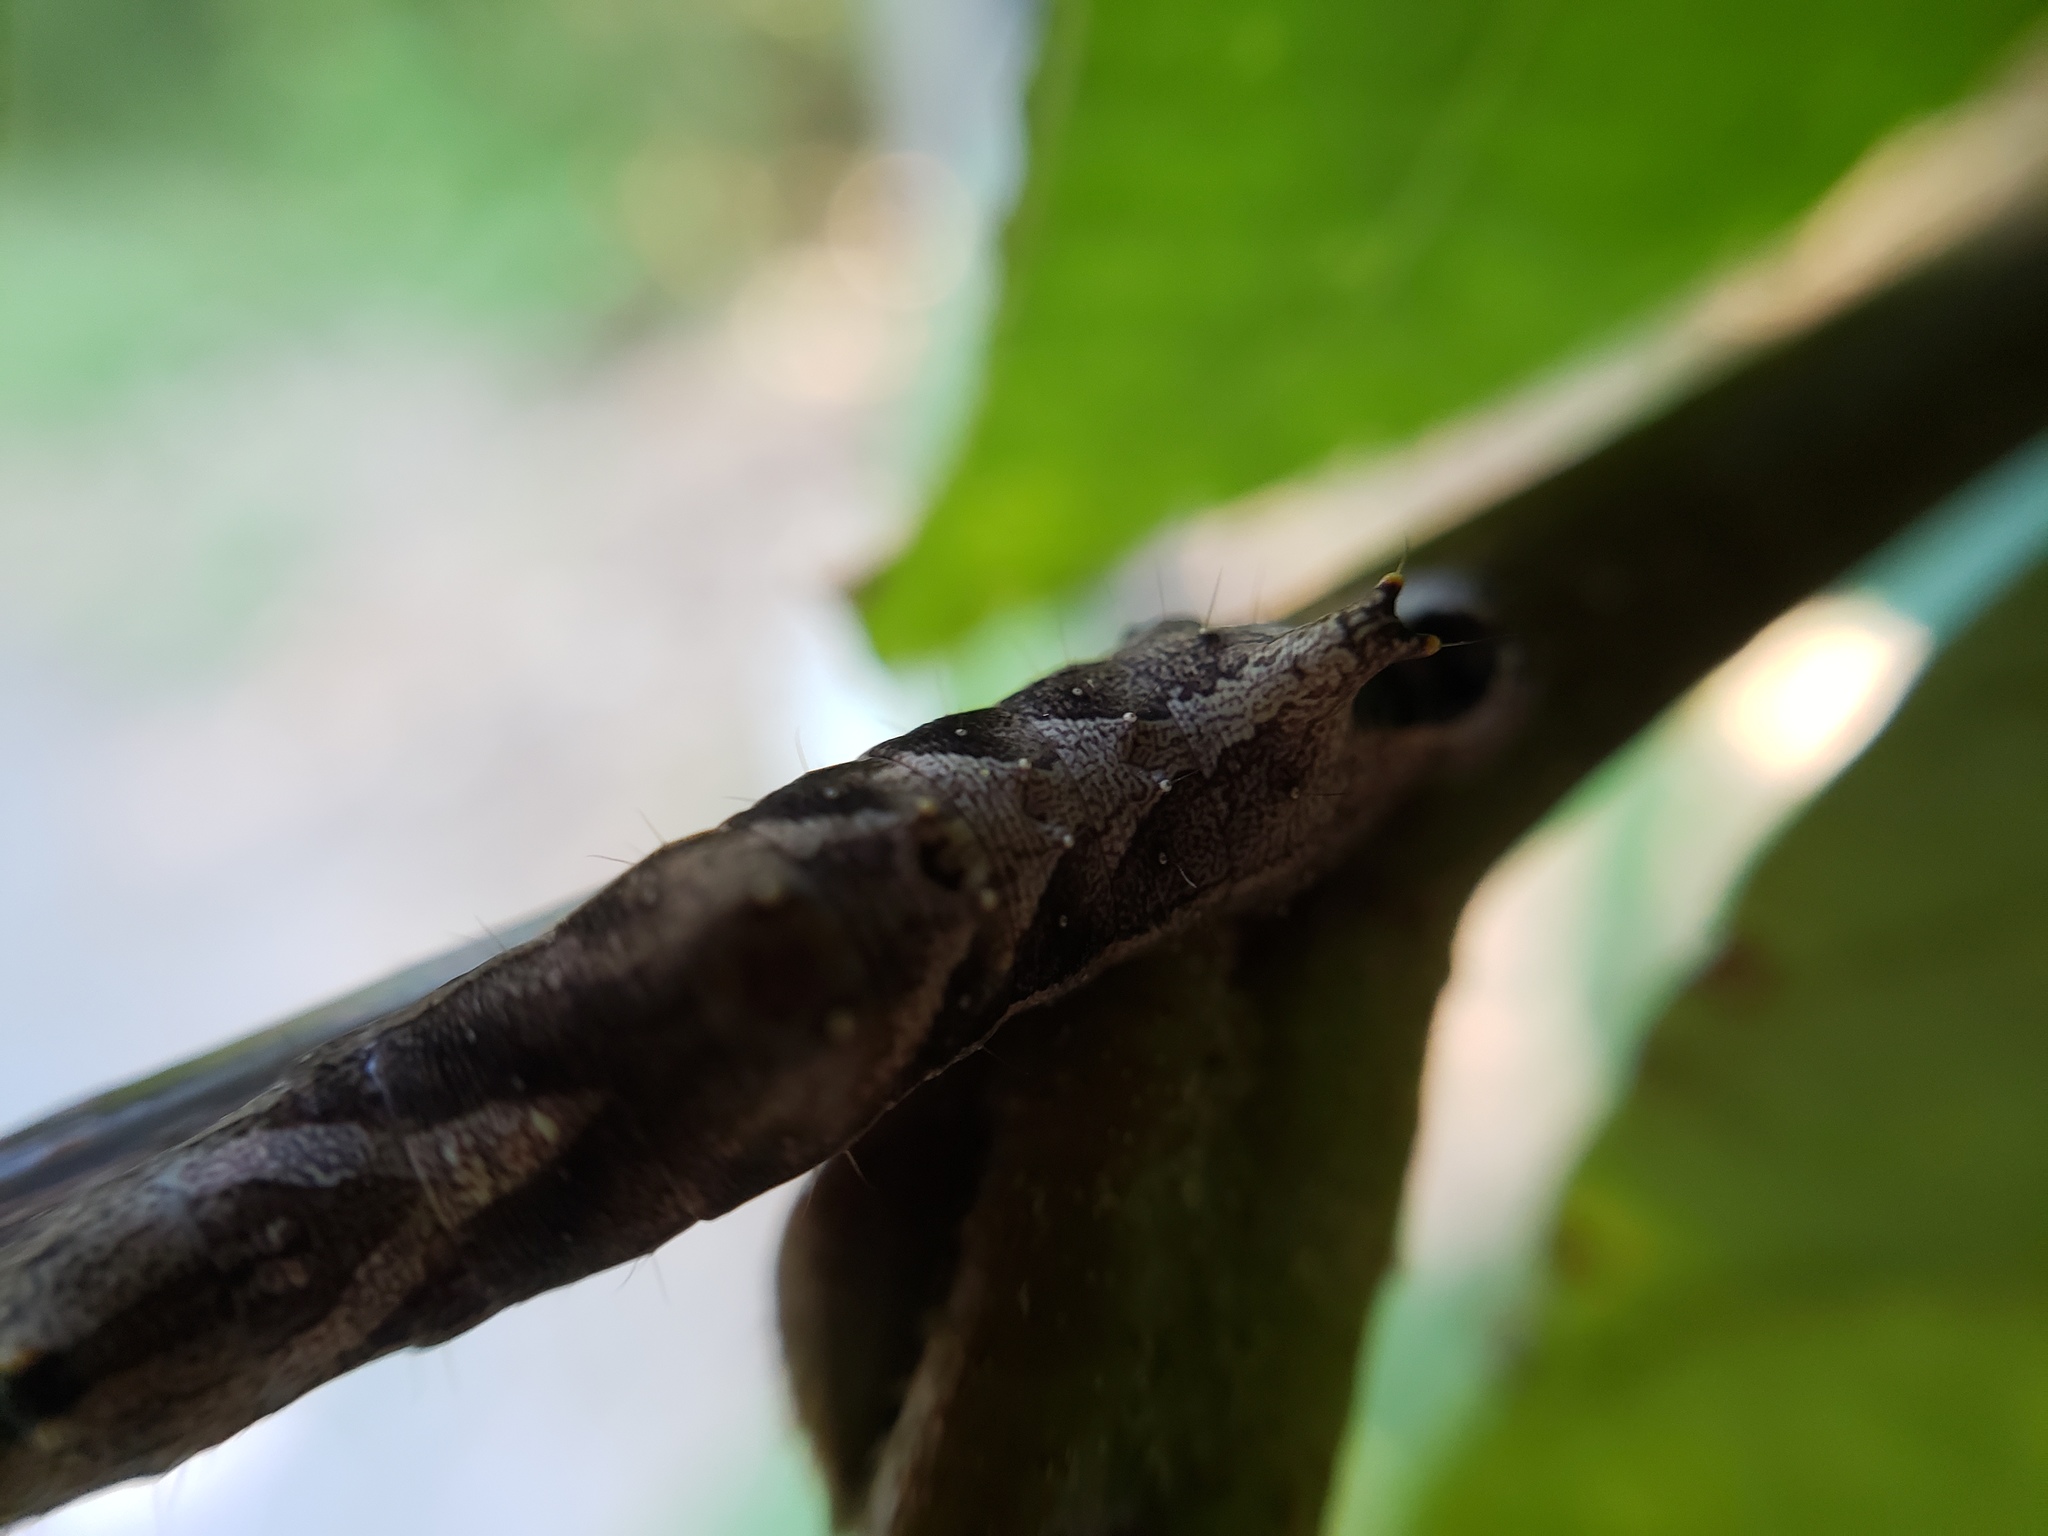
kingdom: Animalia
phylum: Arthropoda
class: Insecta
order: Lepidoptera
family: Notodontidae
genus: Schizura
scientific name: Schizura
